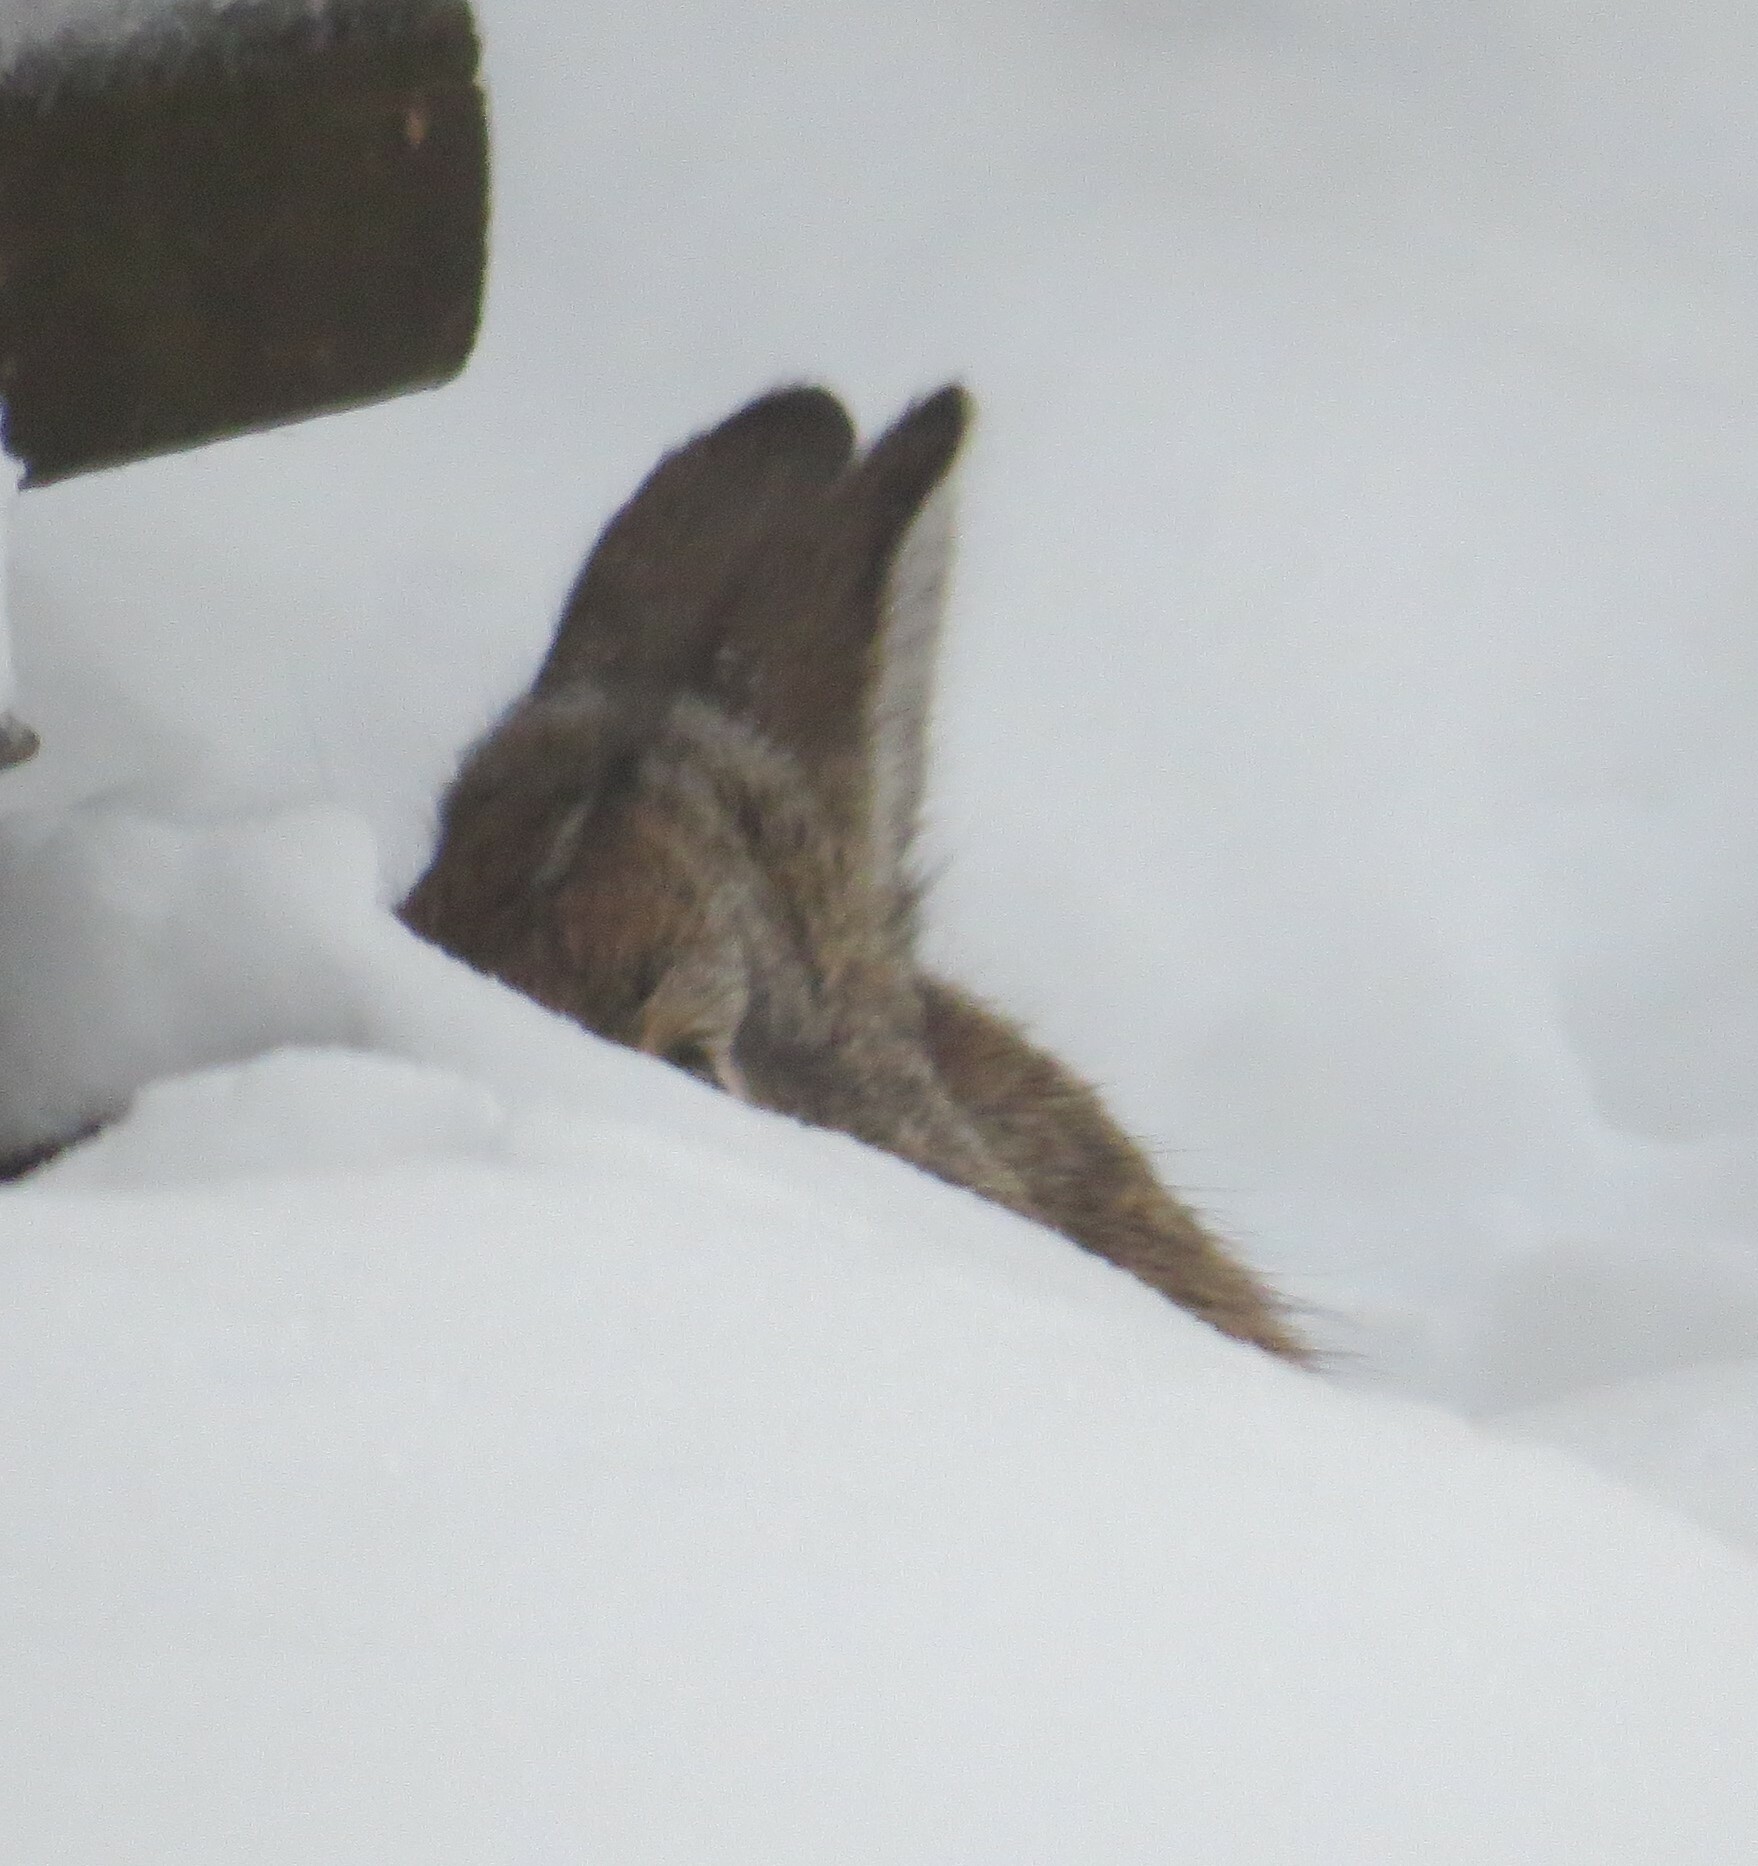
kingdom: Animalia
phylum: Chordata
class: Mammalia
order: Lagomorpha
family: Leporidae
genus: Sylvilagus
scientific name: Sylvilagus floridanus
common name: Eastern cottontail
